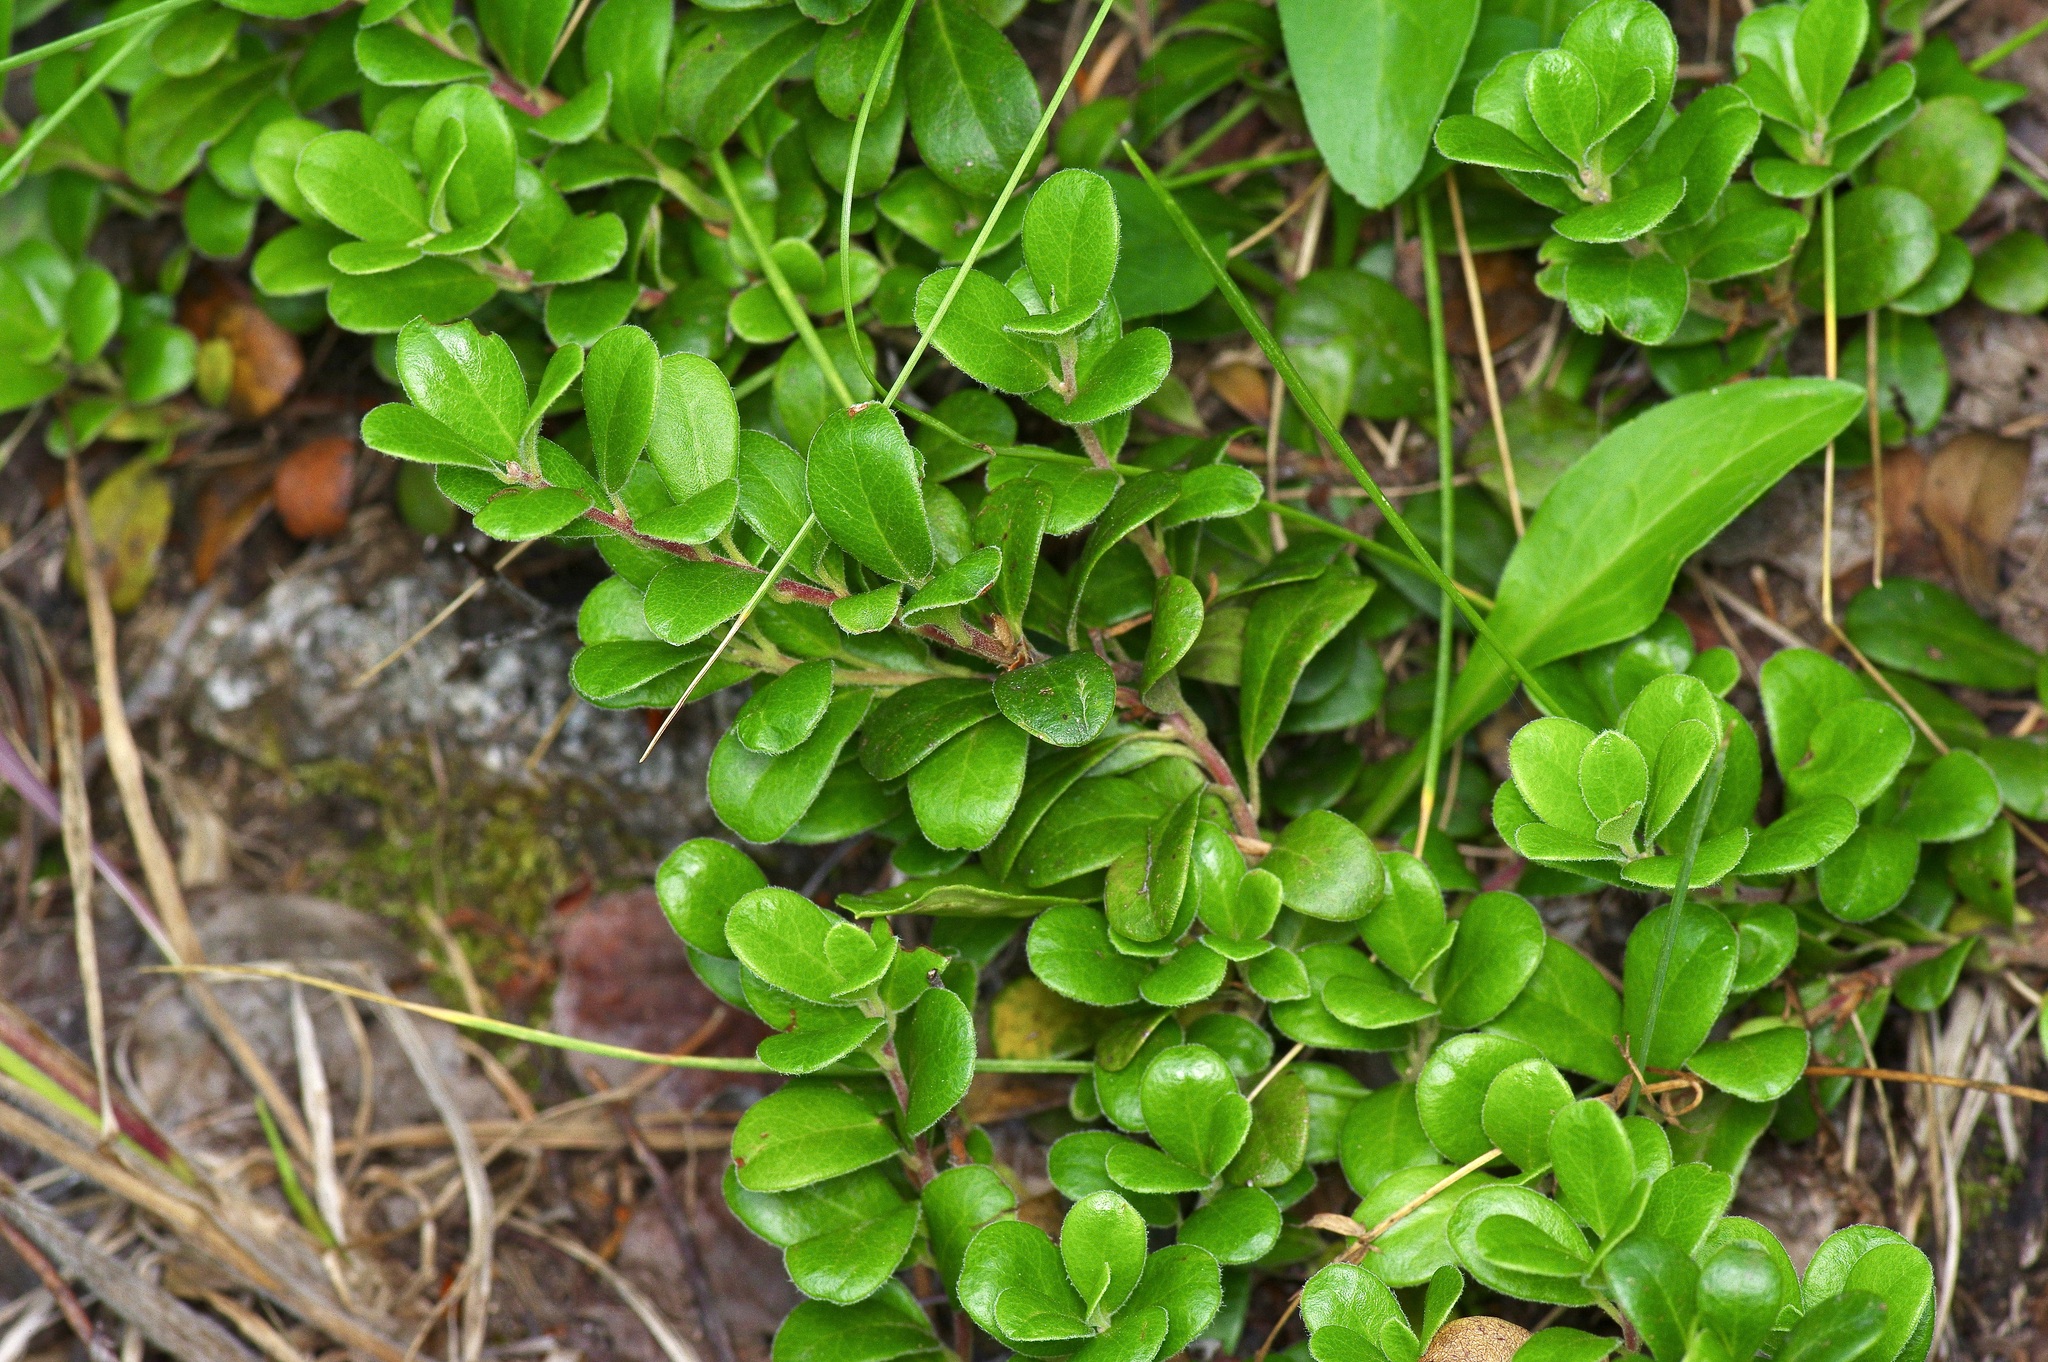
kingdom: Plantae
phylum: Tracheophyta
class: Magnoliopsida
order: Ericales
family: Ericaceae
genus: Arctostaphylos
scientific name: Arctostaphylos uva-ursi
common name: Bearberry
